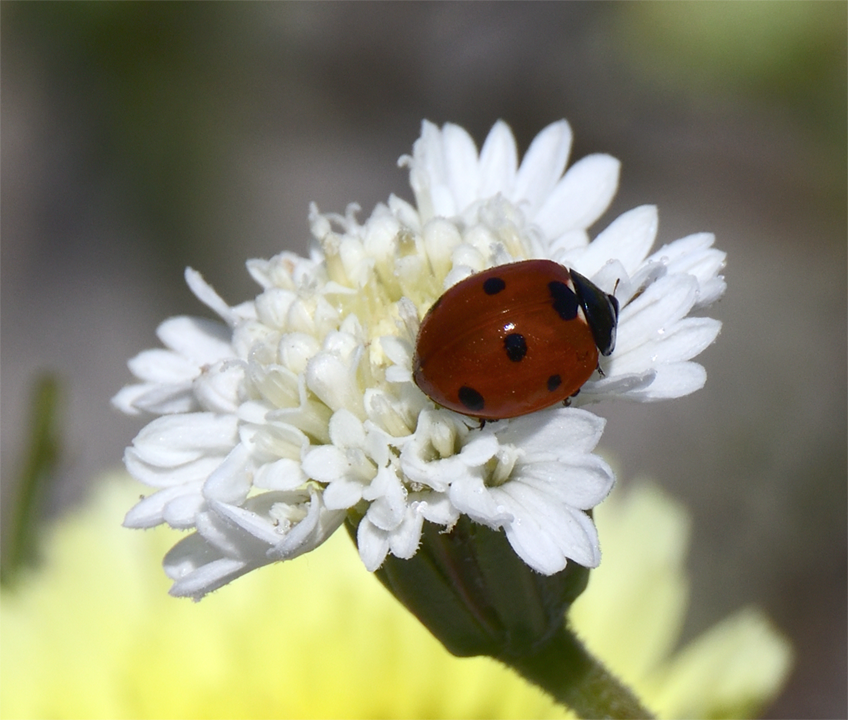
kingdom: Animalia
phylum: Arthropoda
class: Insecta
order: Coleoptera
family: Coccinellidae
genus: Coccinella
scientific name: Coccinella septempunctata
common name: Sevenspotted lady beetle
